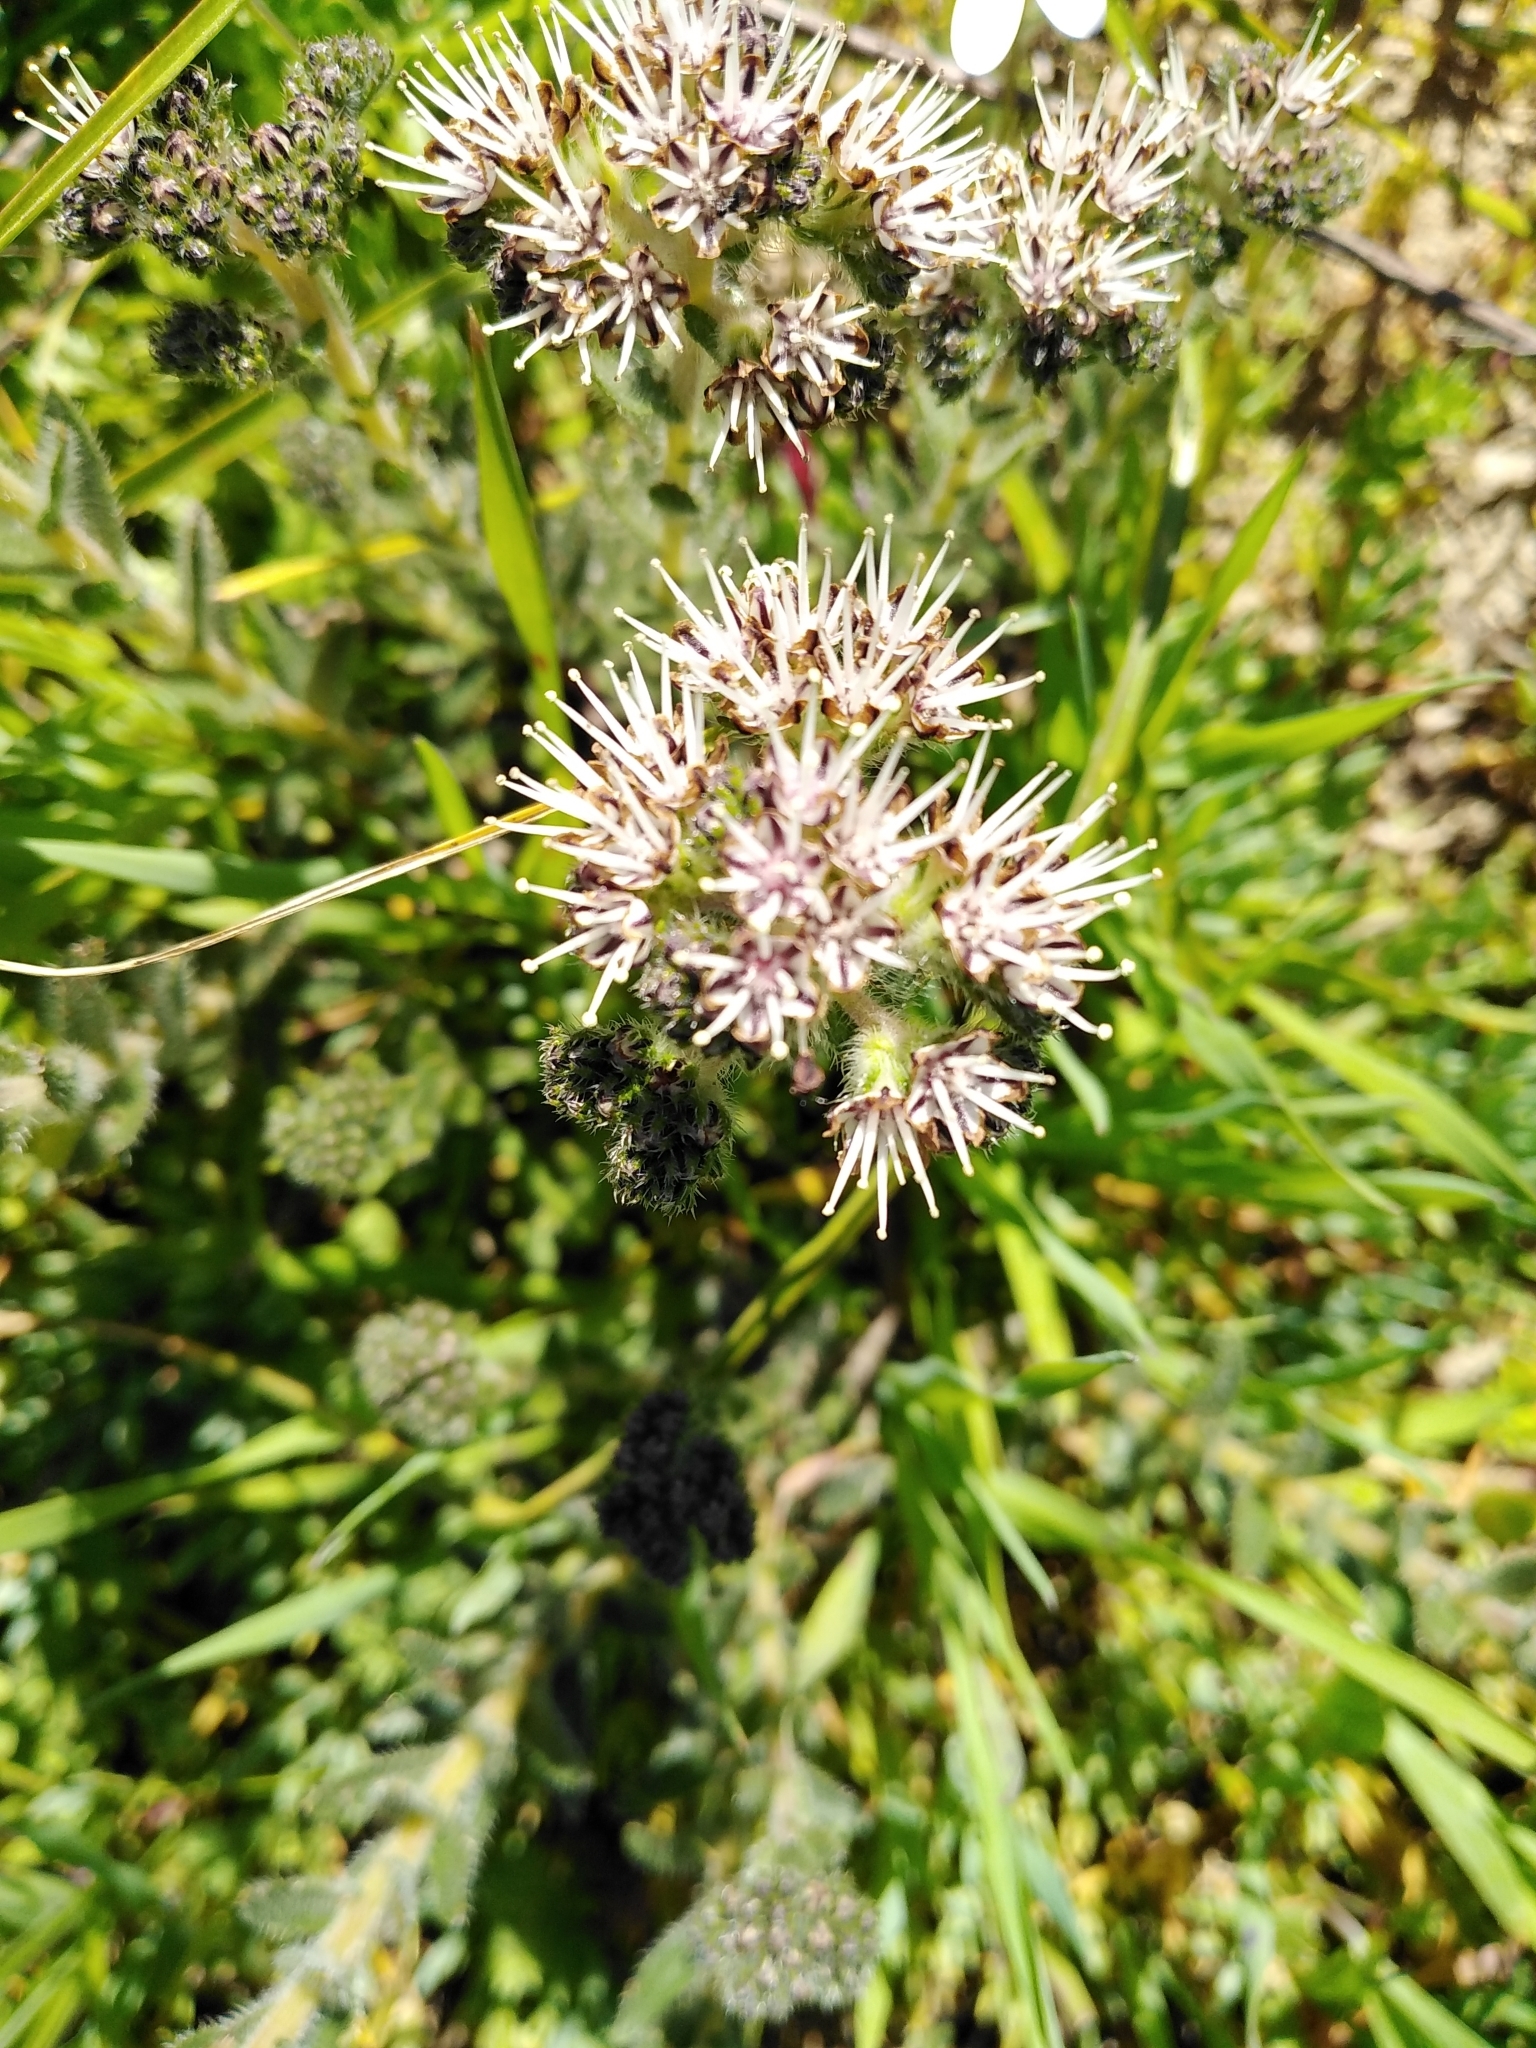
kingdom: Plantae
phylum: Tracheophyta
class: Magnoliopsida
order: Boraginales
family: Boraginaceae
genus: Lobostemon
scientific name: Lobostemon capitatus
